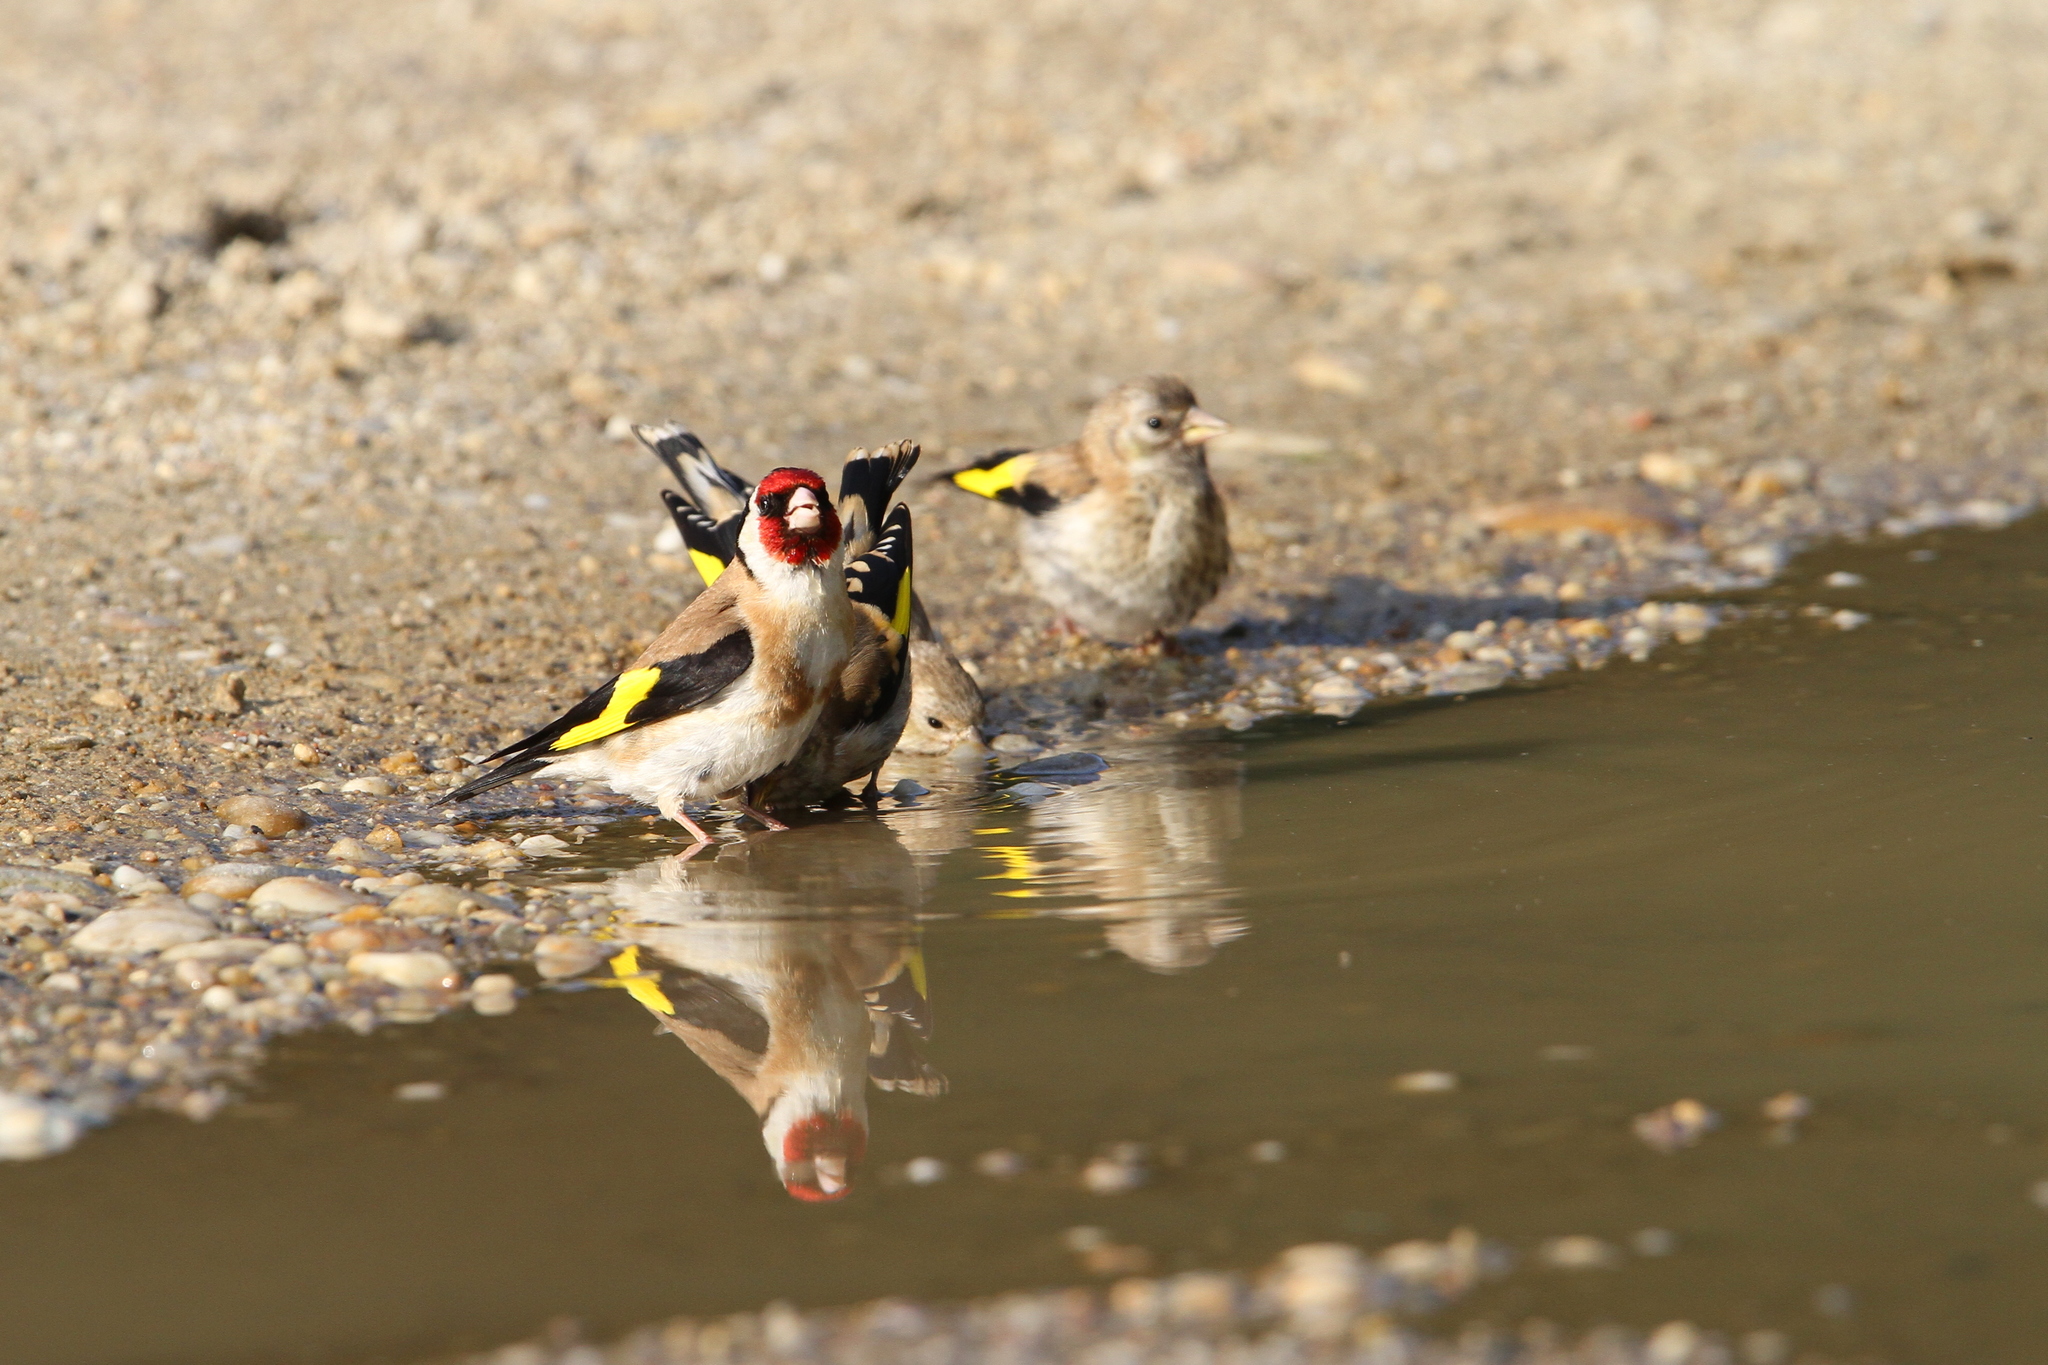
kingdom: Animalia
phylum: Chordata
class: Aves
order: Passeriformes
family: Fringillidae
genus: Carduelis
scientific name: Carduelis carduelis
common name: European goldfinch
